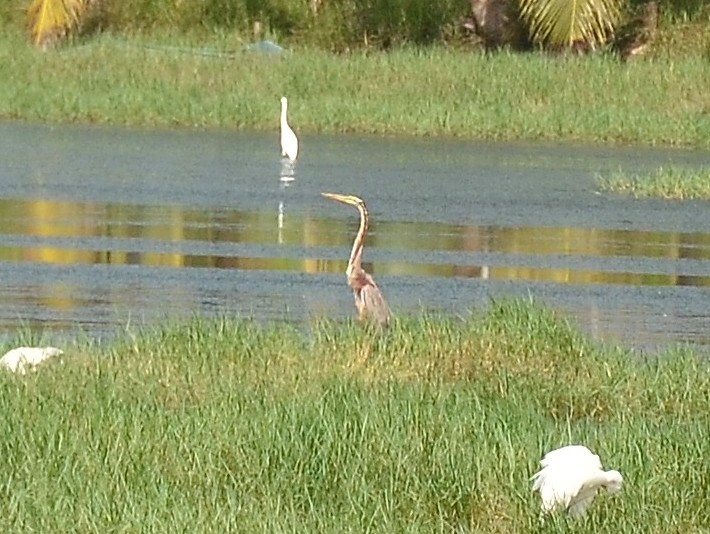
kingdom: Animalia
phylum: Chordata
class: Aves
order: Pelecaniformes
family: Ardeidae
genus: Ardea
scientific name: Ardea purpurea
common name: Purple heron
